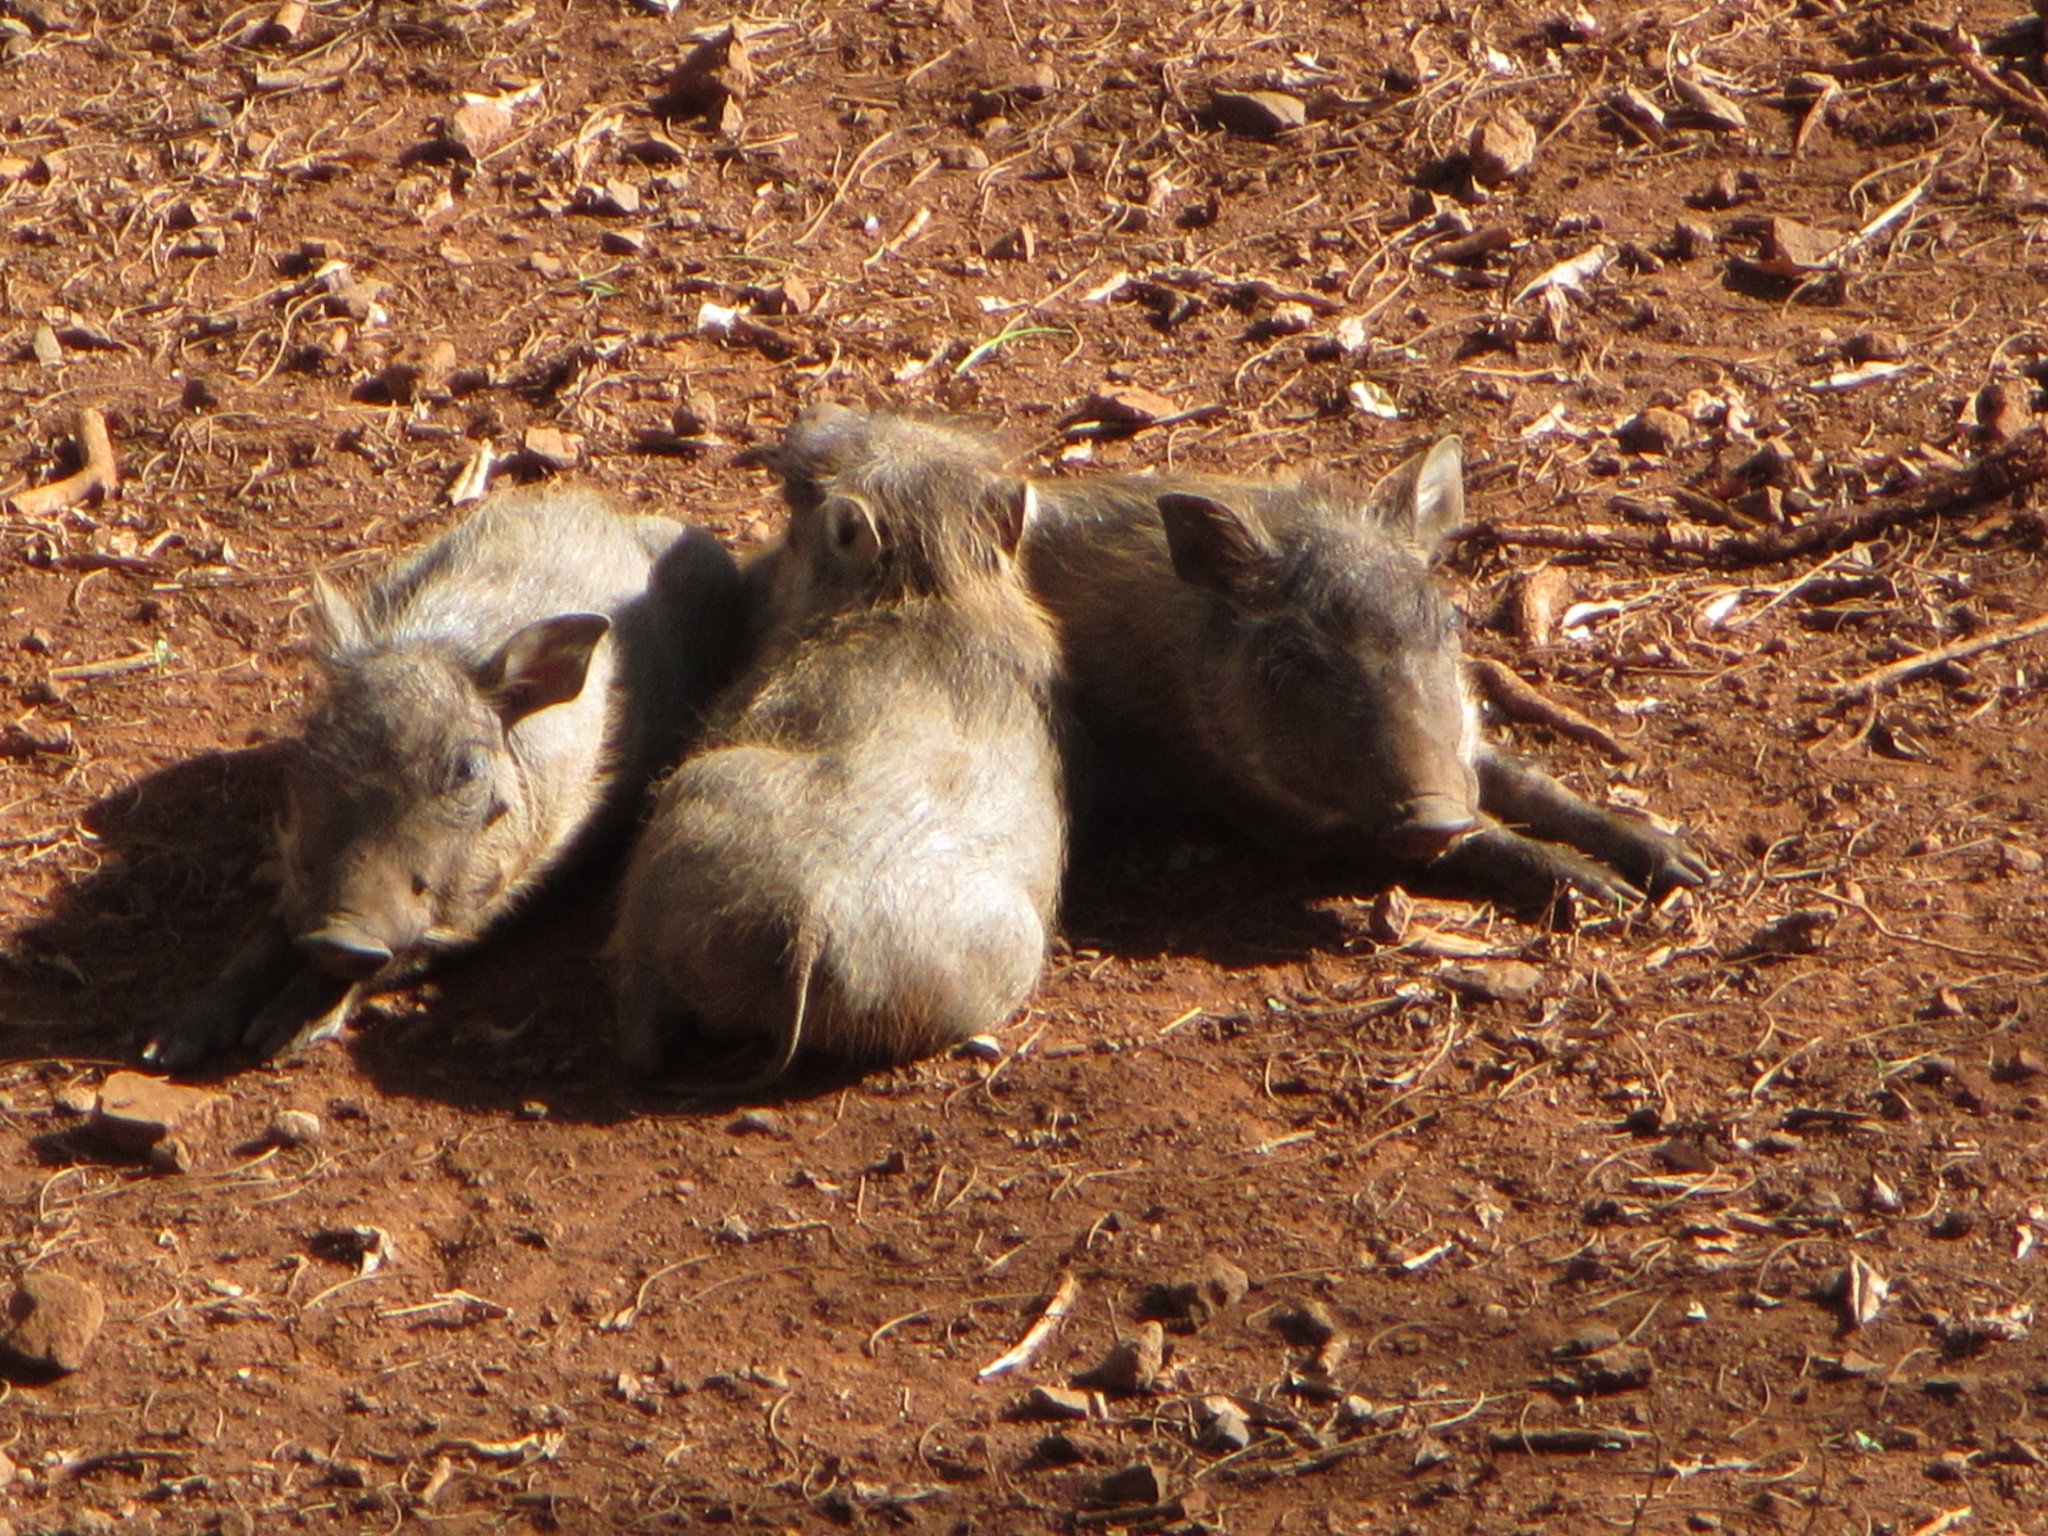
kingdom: Animalia
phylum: Chordata
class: Mammalia
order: Artiodactyla
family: Suidae
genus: Phacochoerus
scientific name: Phacochoerus africanus
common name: Common warthog
